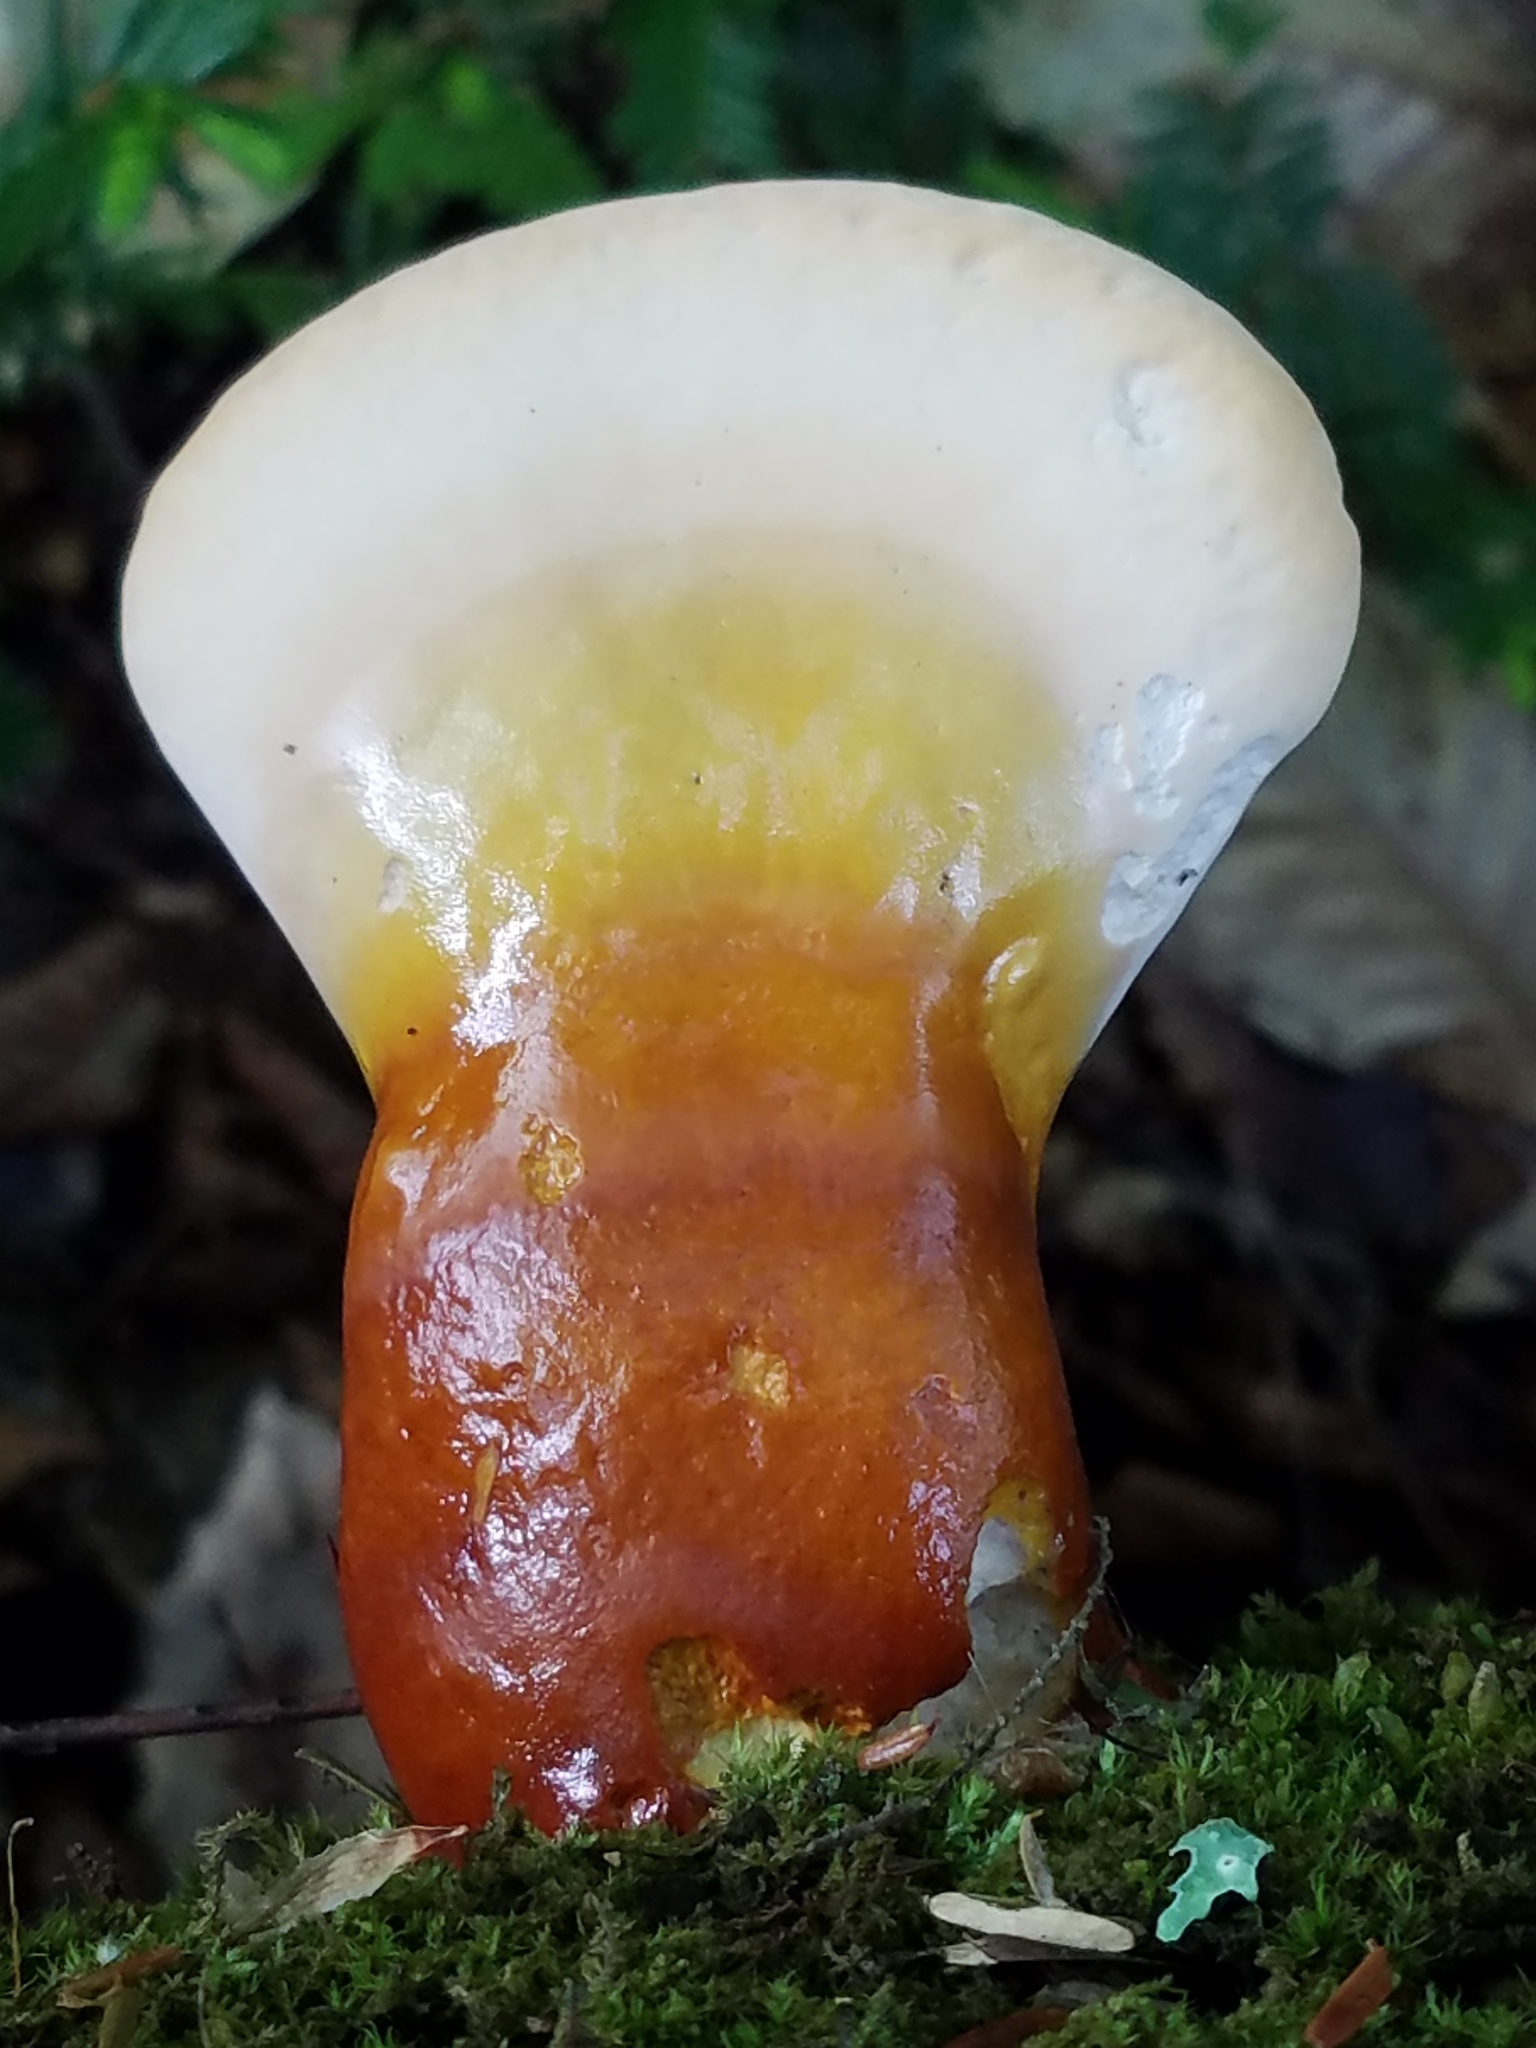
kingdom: Fungi
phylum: Basidiomycota
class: Agaricomycetes
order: Polyporales
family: Polyporaceae
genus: Ganoderma
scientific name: Ganoderma tsugae
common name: Hemlock varnish shelf
